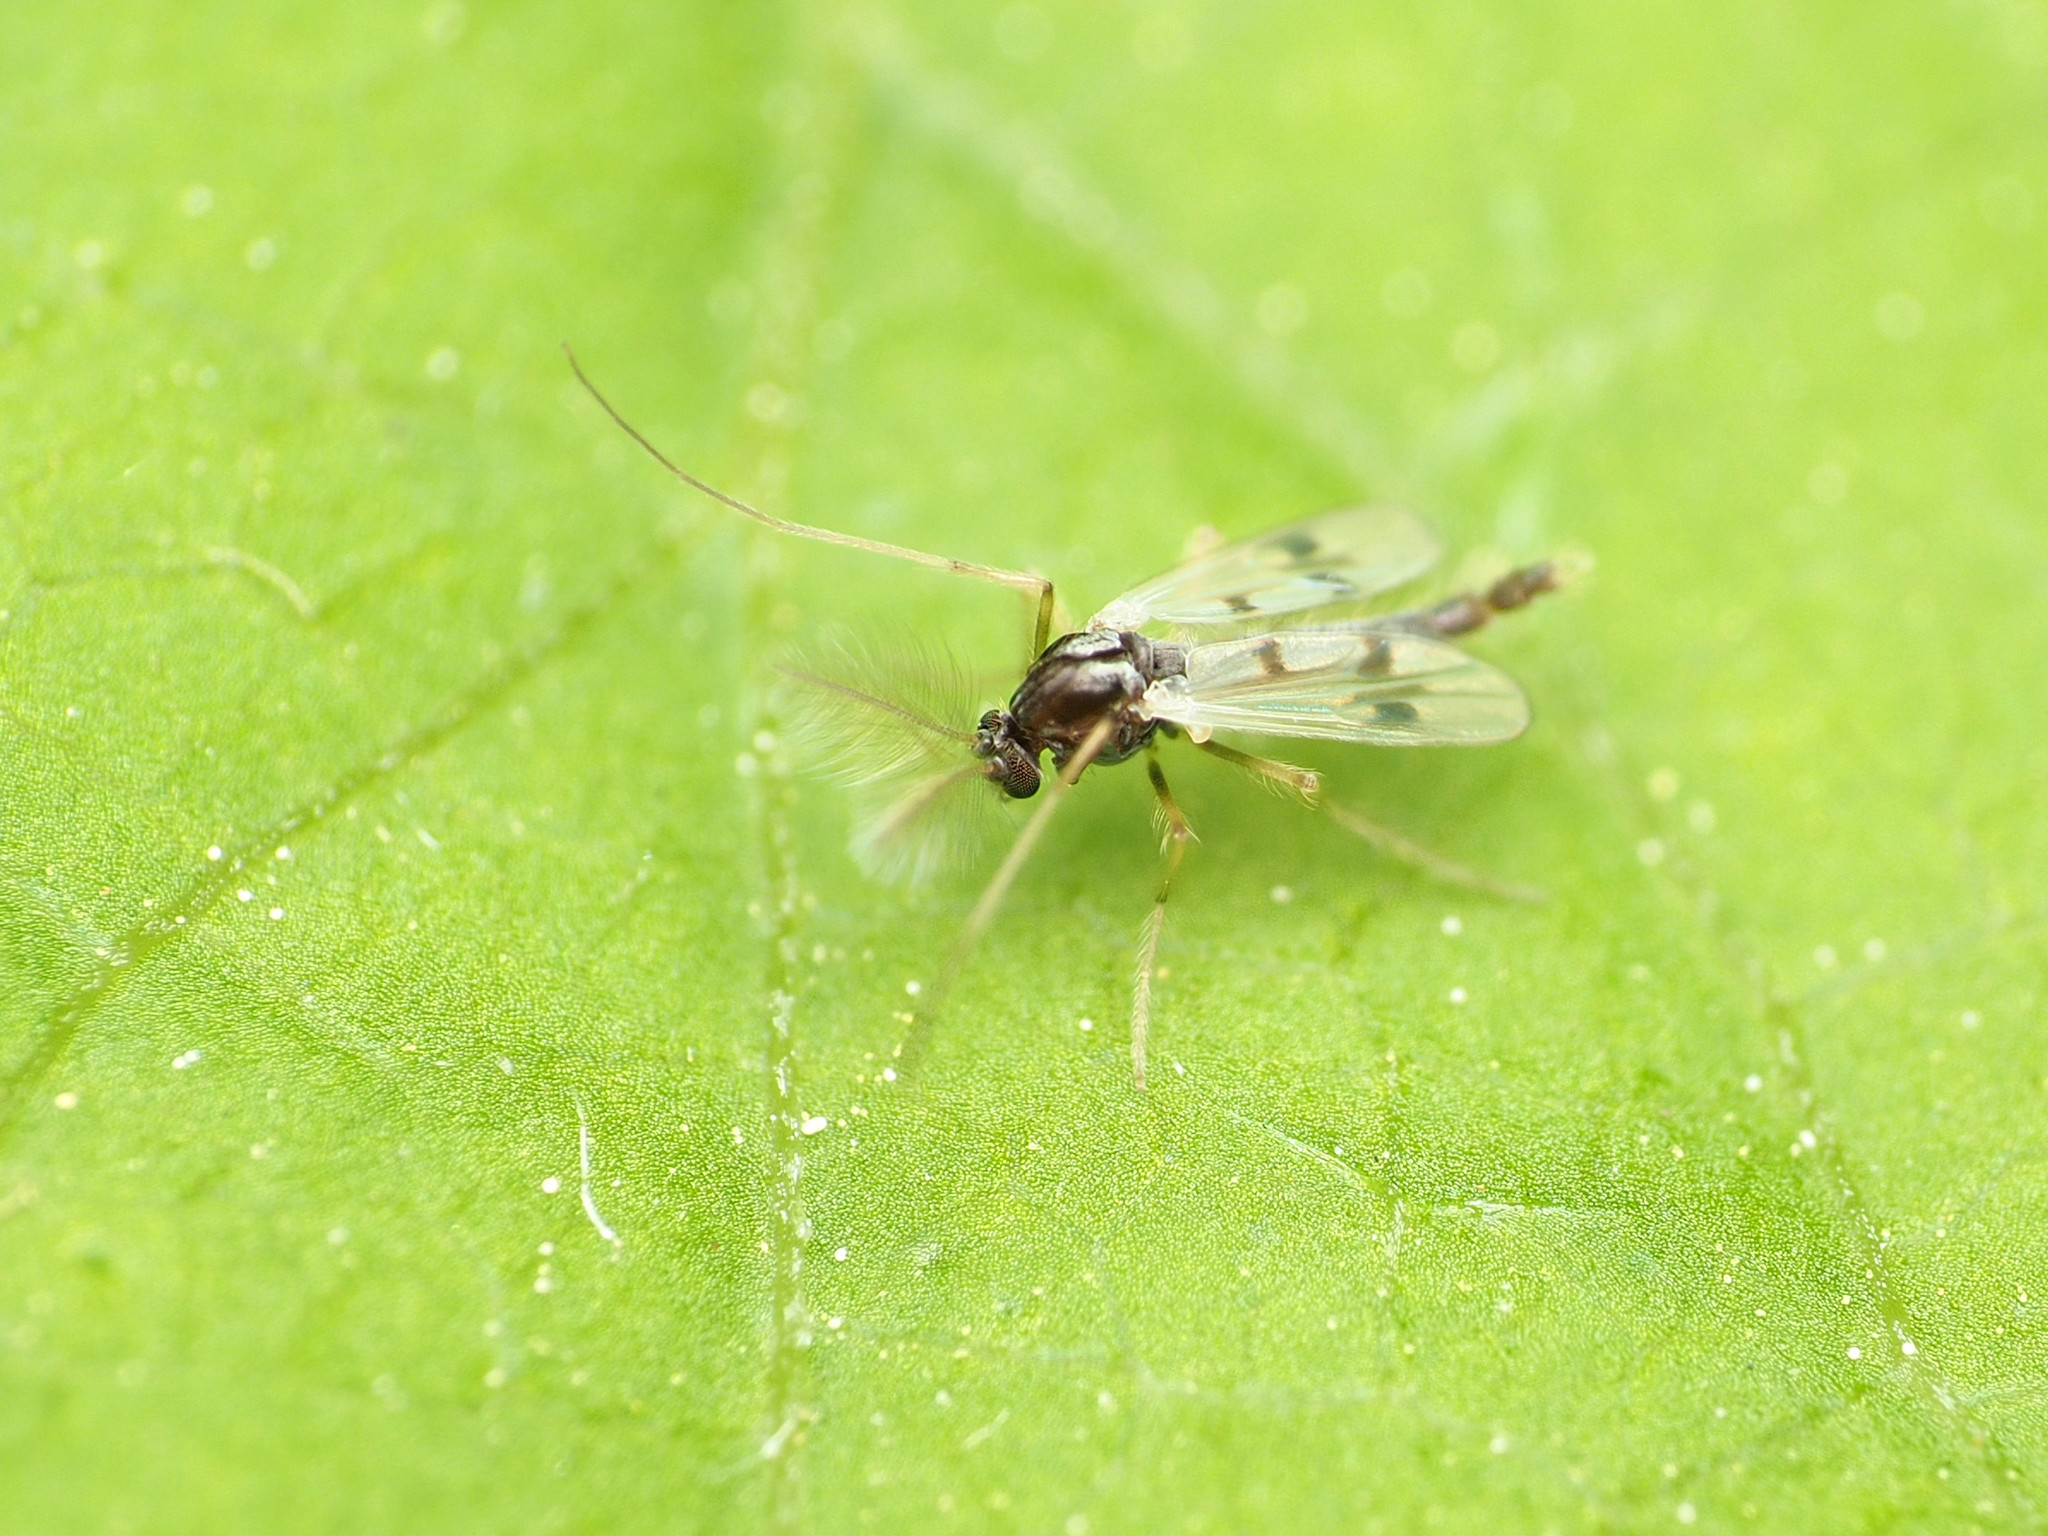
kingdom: Animalia
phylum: Arthropoda
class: Insecta
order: Diptera
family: Chironomidae
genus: Polypedilum
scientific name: Polypedilum scalaenum
